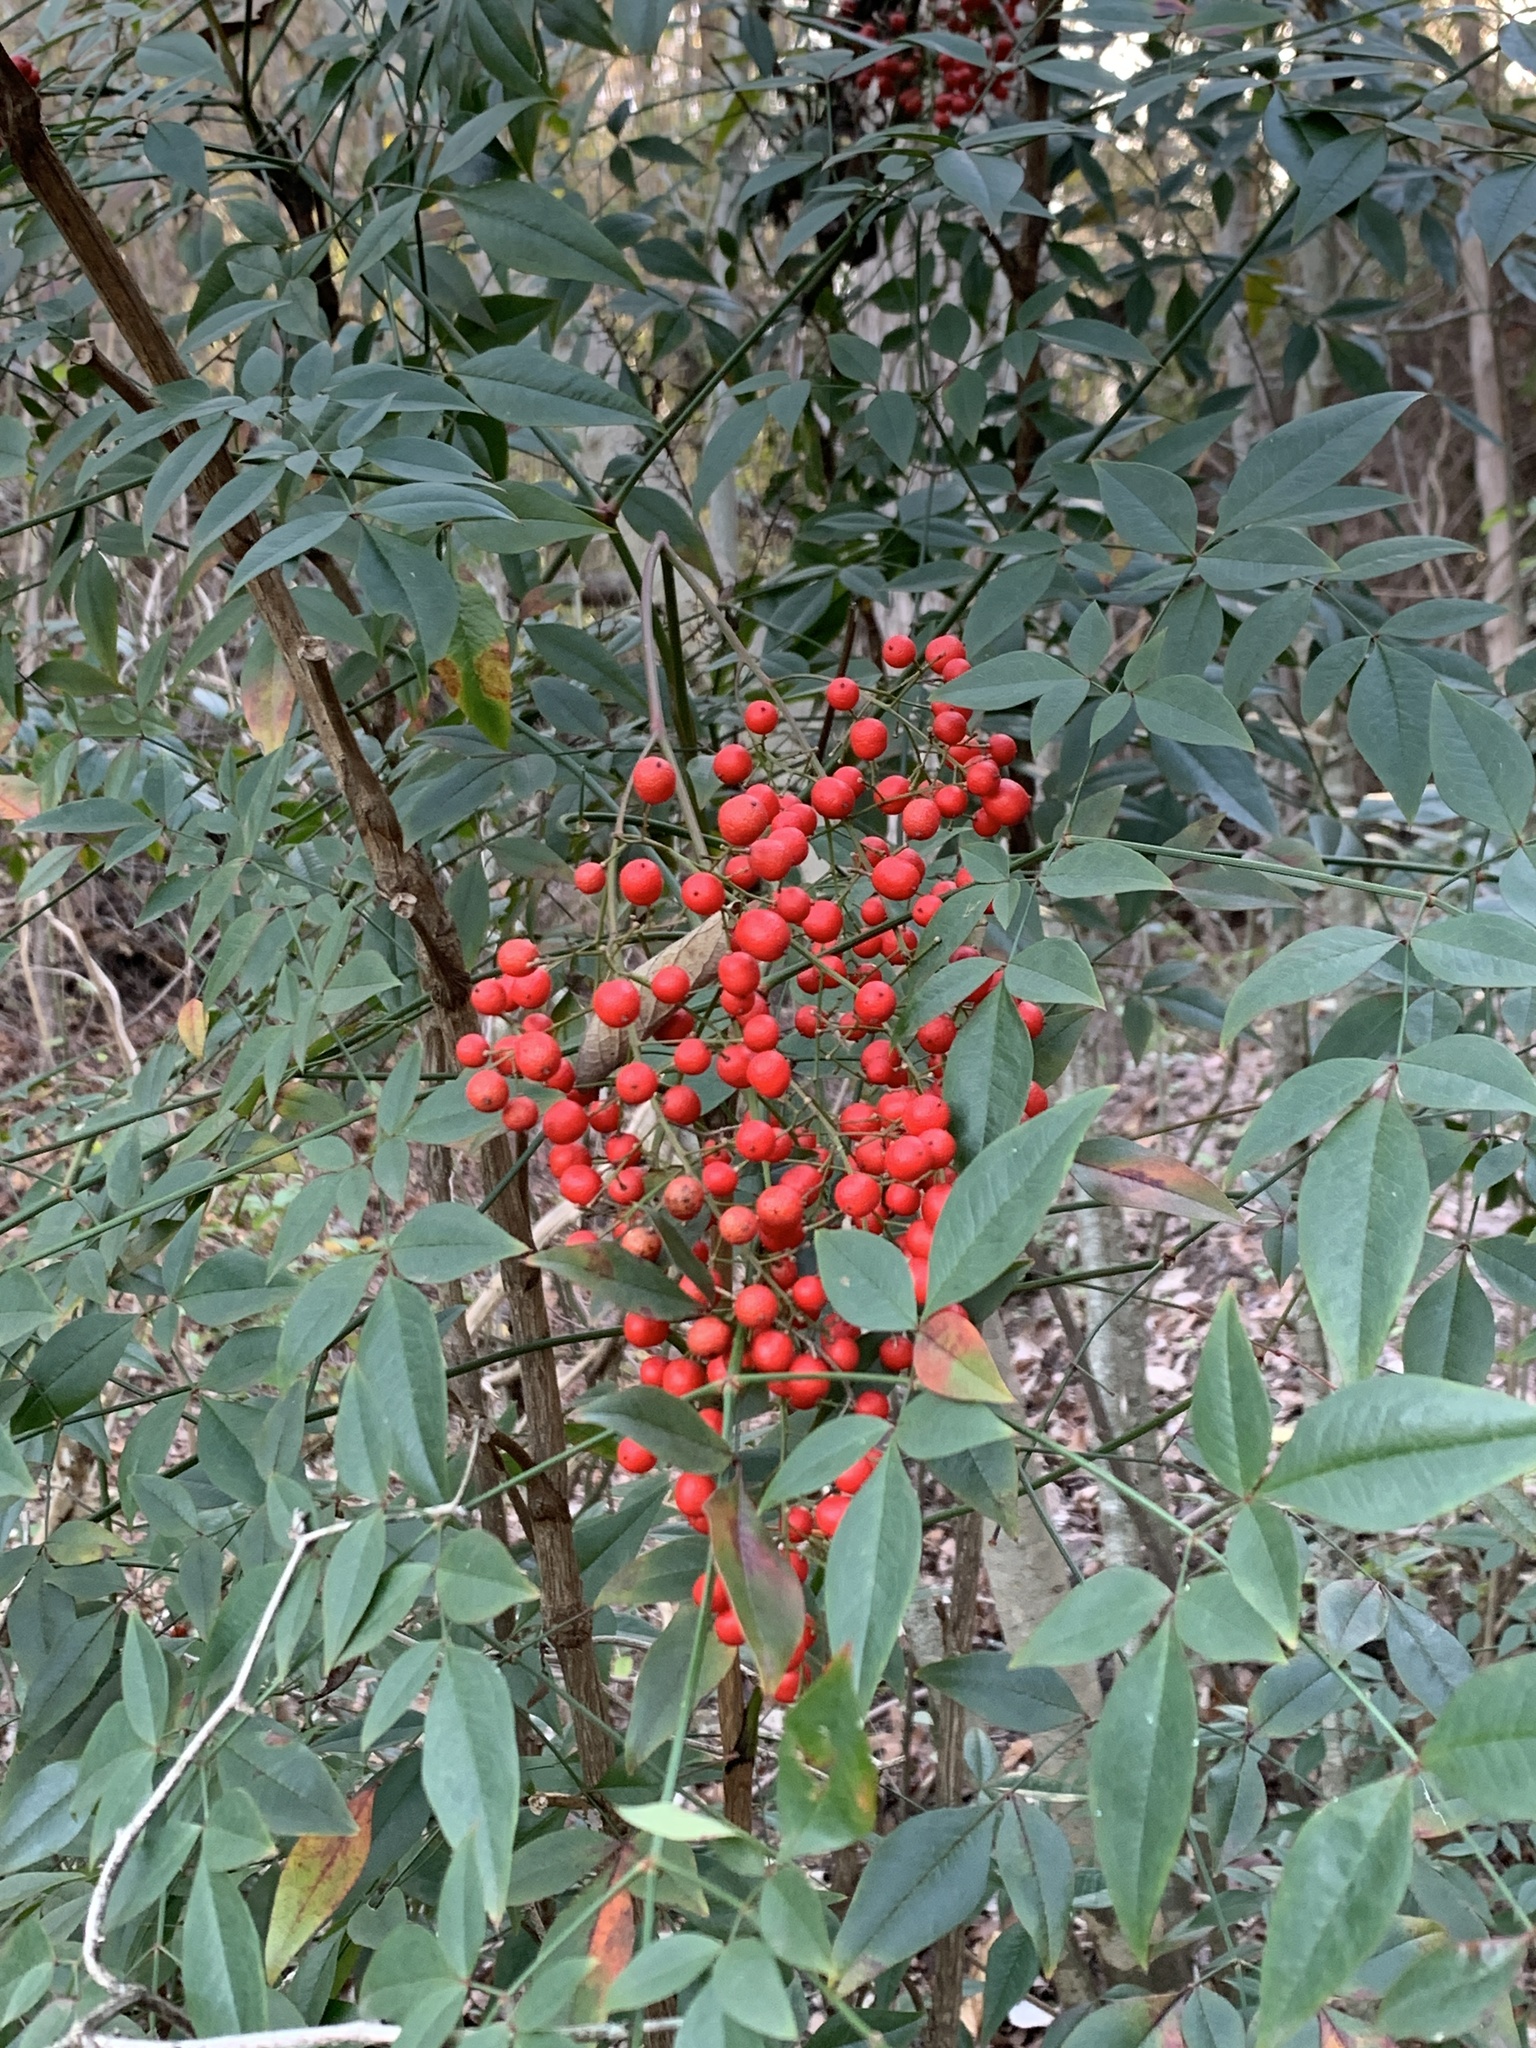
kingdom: Plantae
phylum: Tracheophyta
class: Magnoliopsida
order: Ranunculales
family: Berberidaceae
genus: Nandina
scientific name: Nandina domestica
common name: Sacred bamboo
